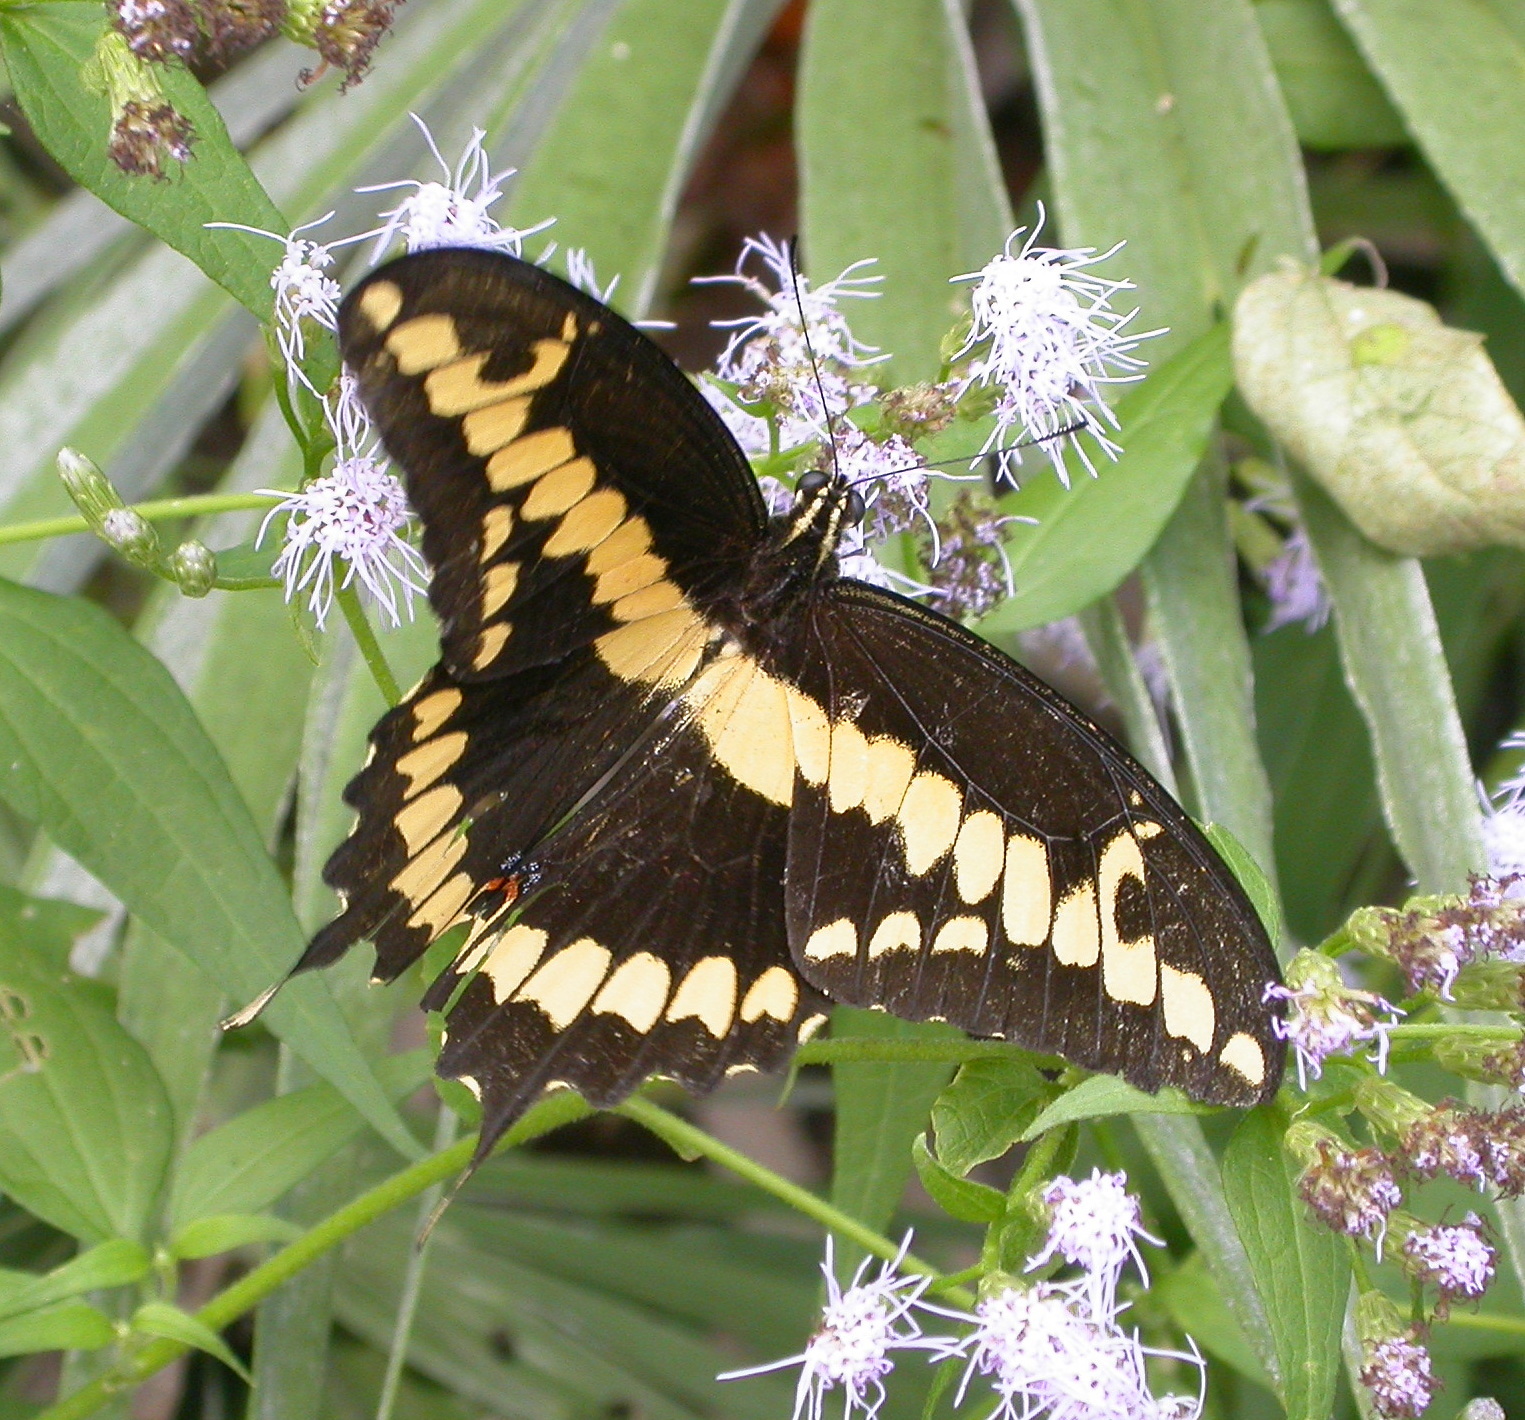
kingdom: Animalia
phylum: Arthropoda
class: Insecta
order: Lepidoptera
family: Papilionidae
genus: Papilio
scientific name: Papilio rumiko
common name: Western giant swallowtail
